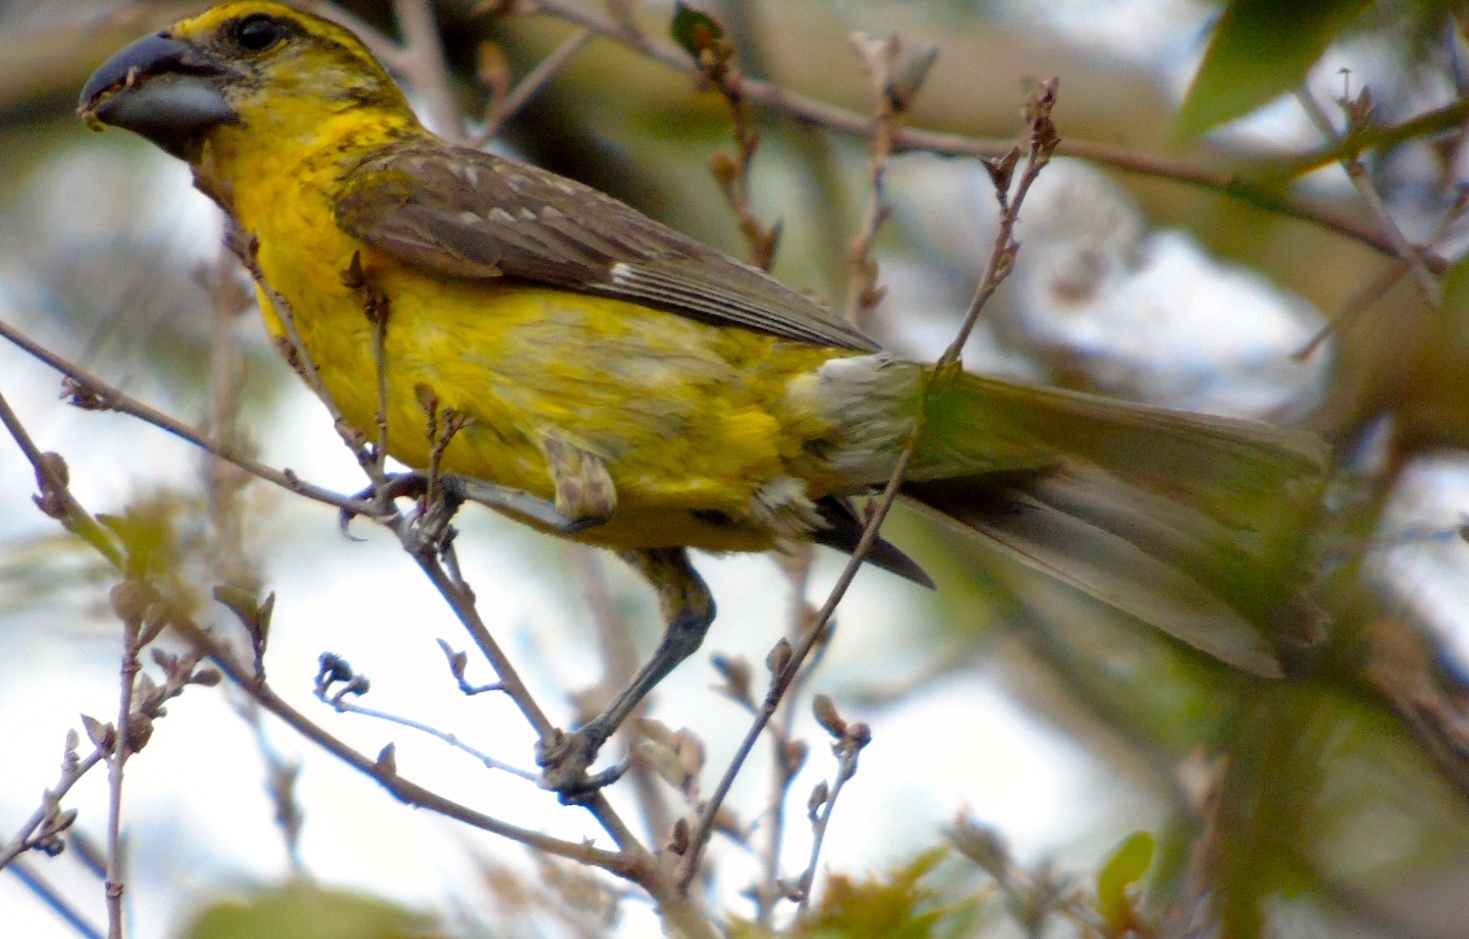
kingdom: Animalia
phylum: Chordata
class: Aves
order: Passeriformes
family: Cardinalidae
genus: Pheucticus
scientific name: Pheucticus chrysopeplus
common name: Yellow grosbeak
